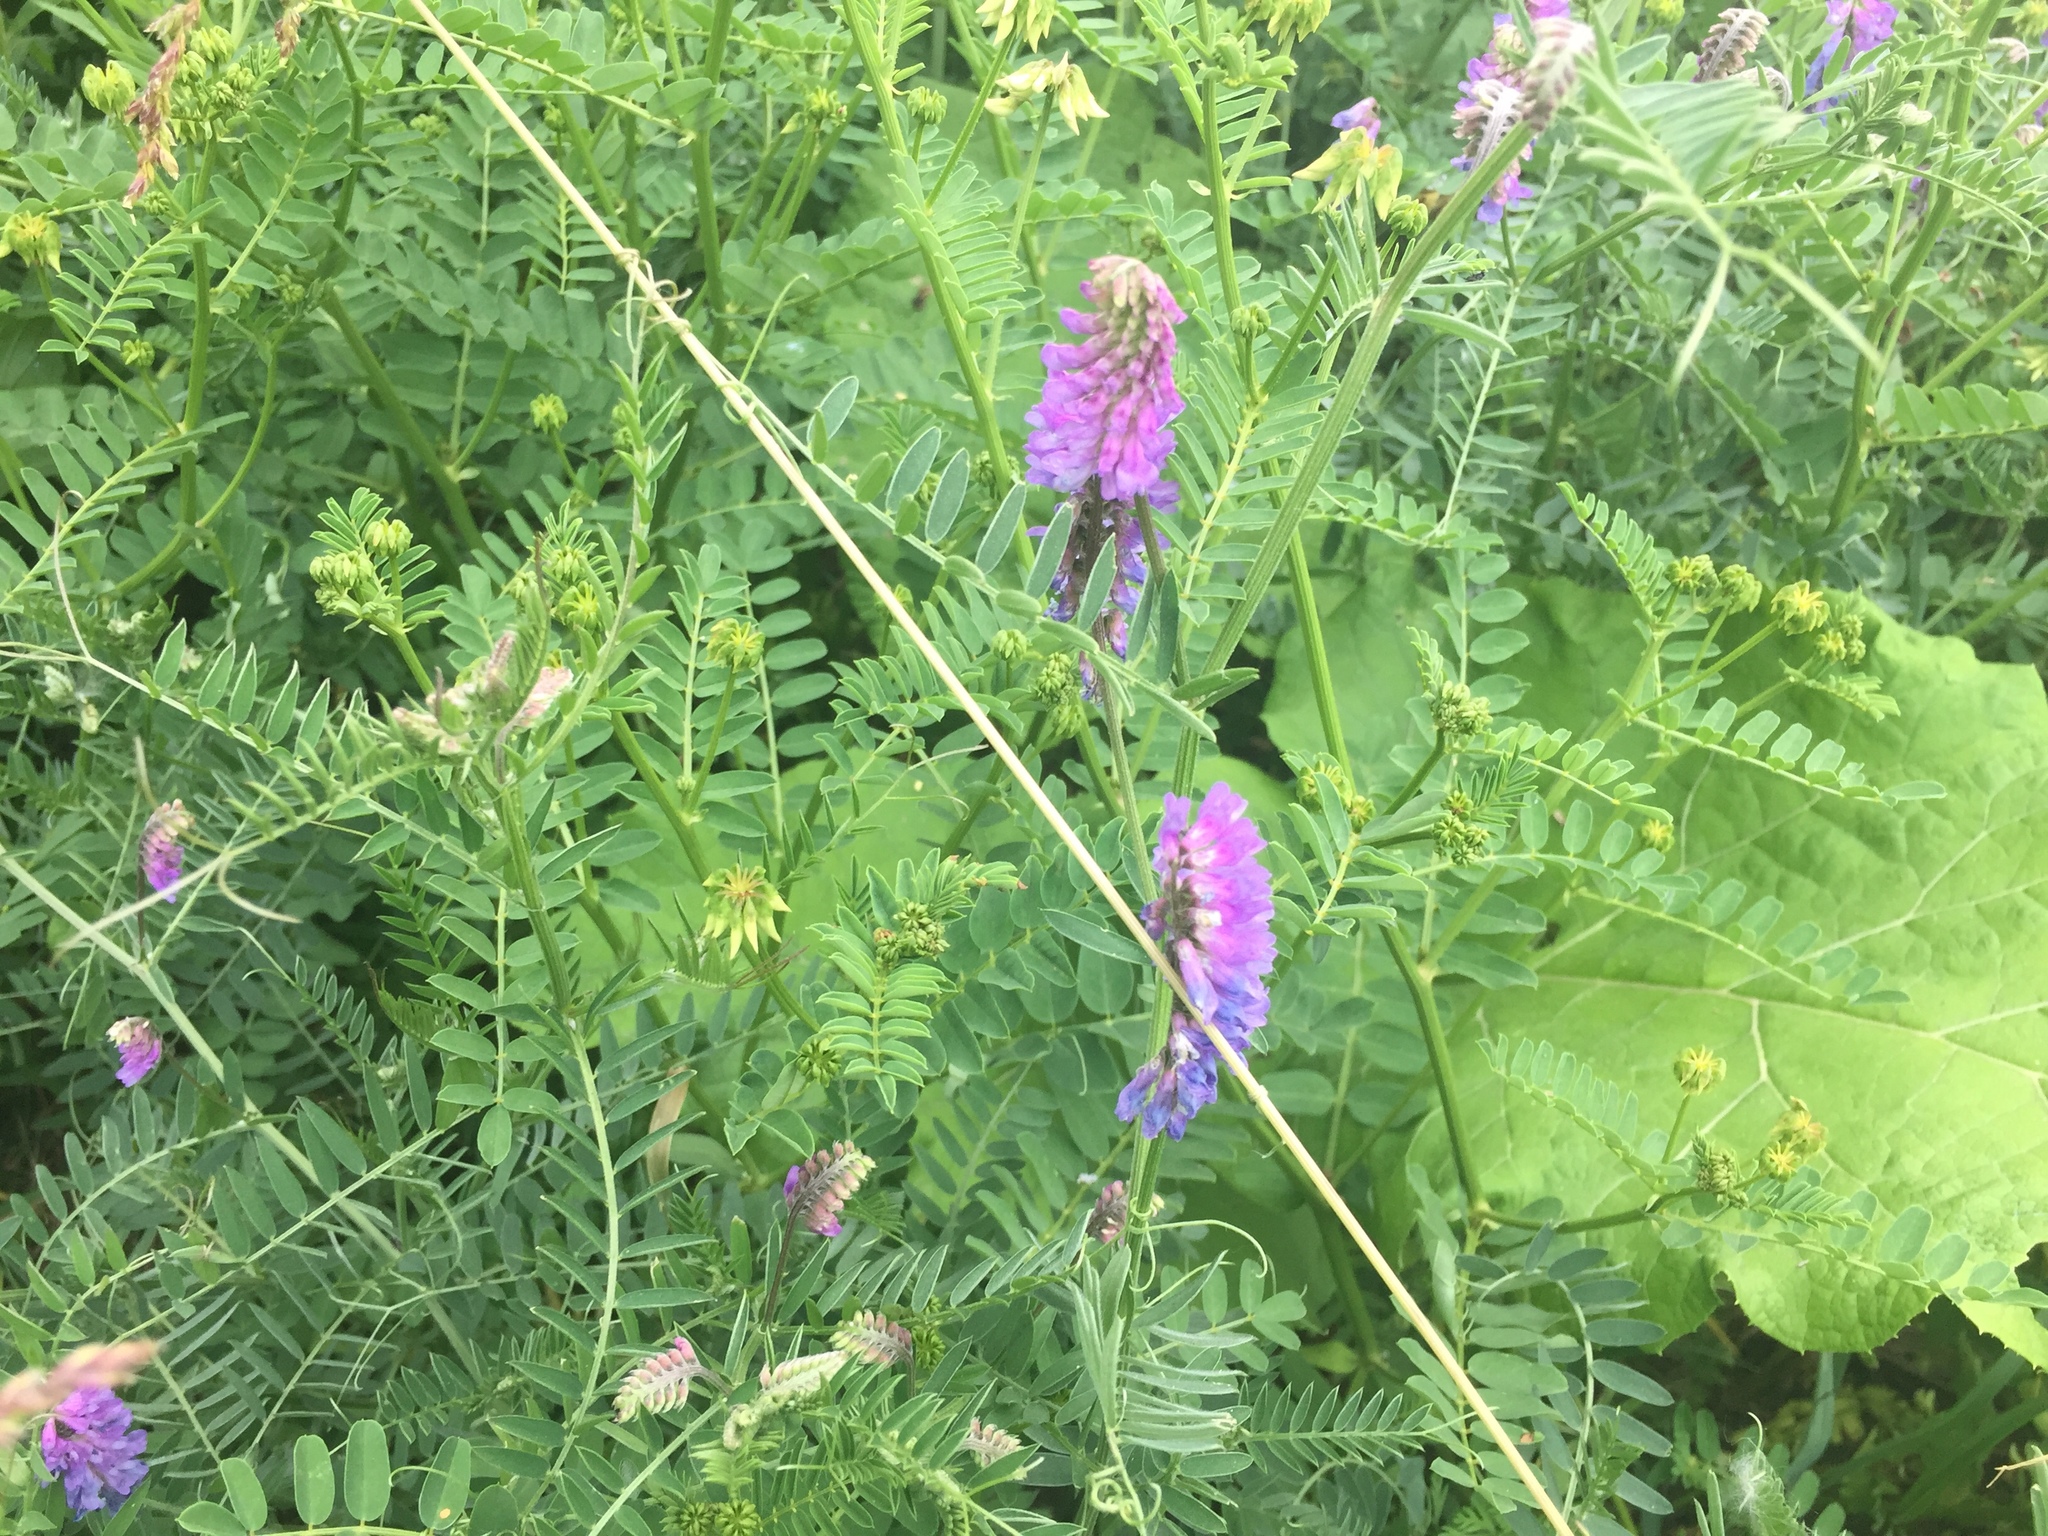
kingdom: Plantae
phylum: Tracheophyta
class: Magnoliopsida
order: Fabales
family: Fabaceae
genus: Vicia
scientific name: Vicia cracca
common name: Bird vetch
